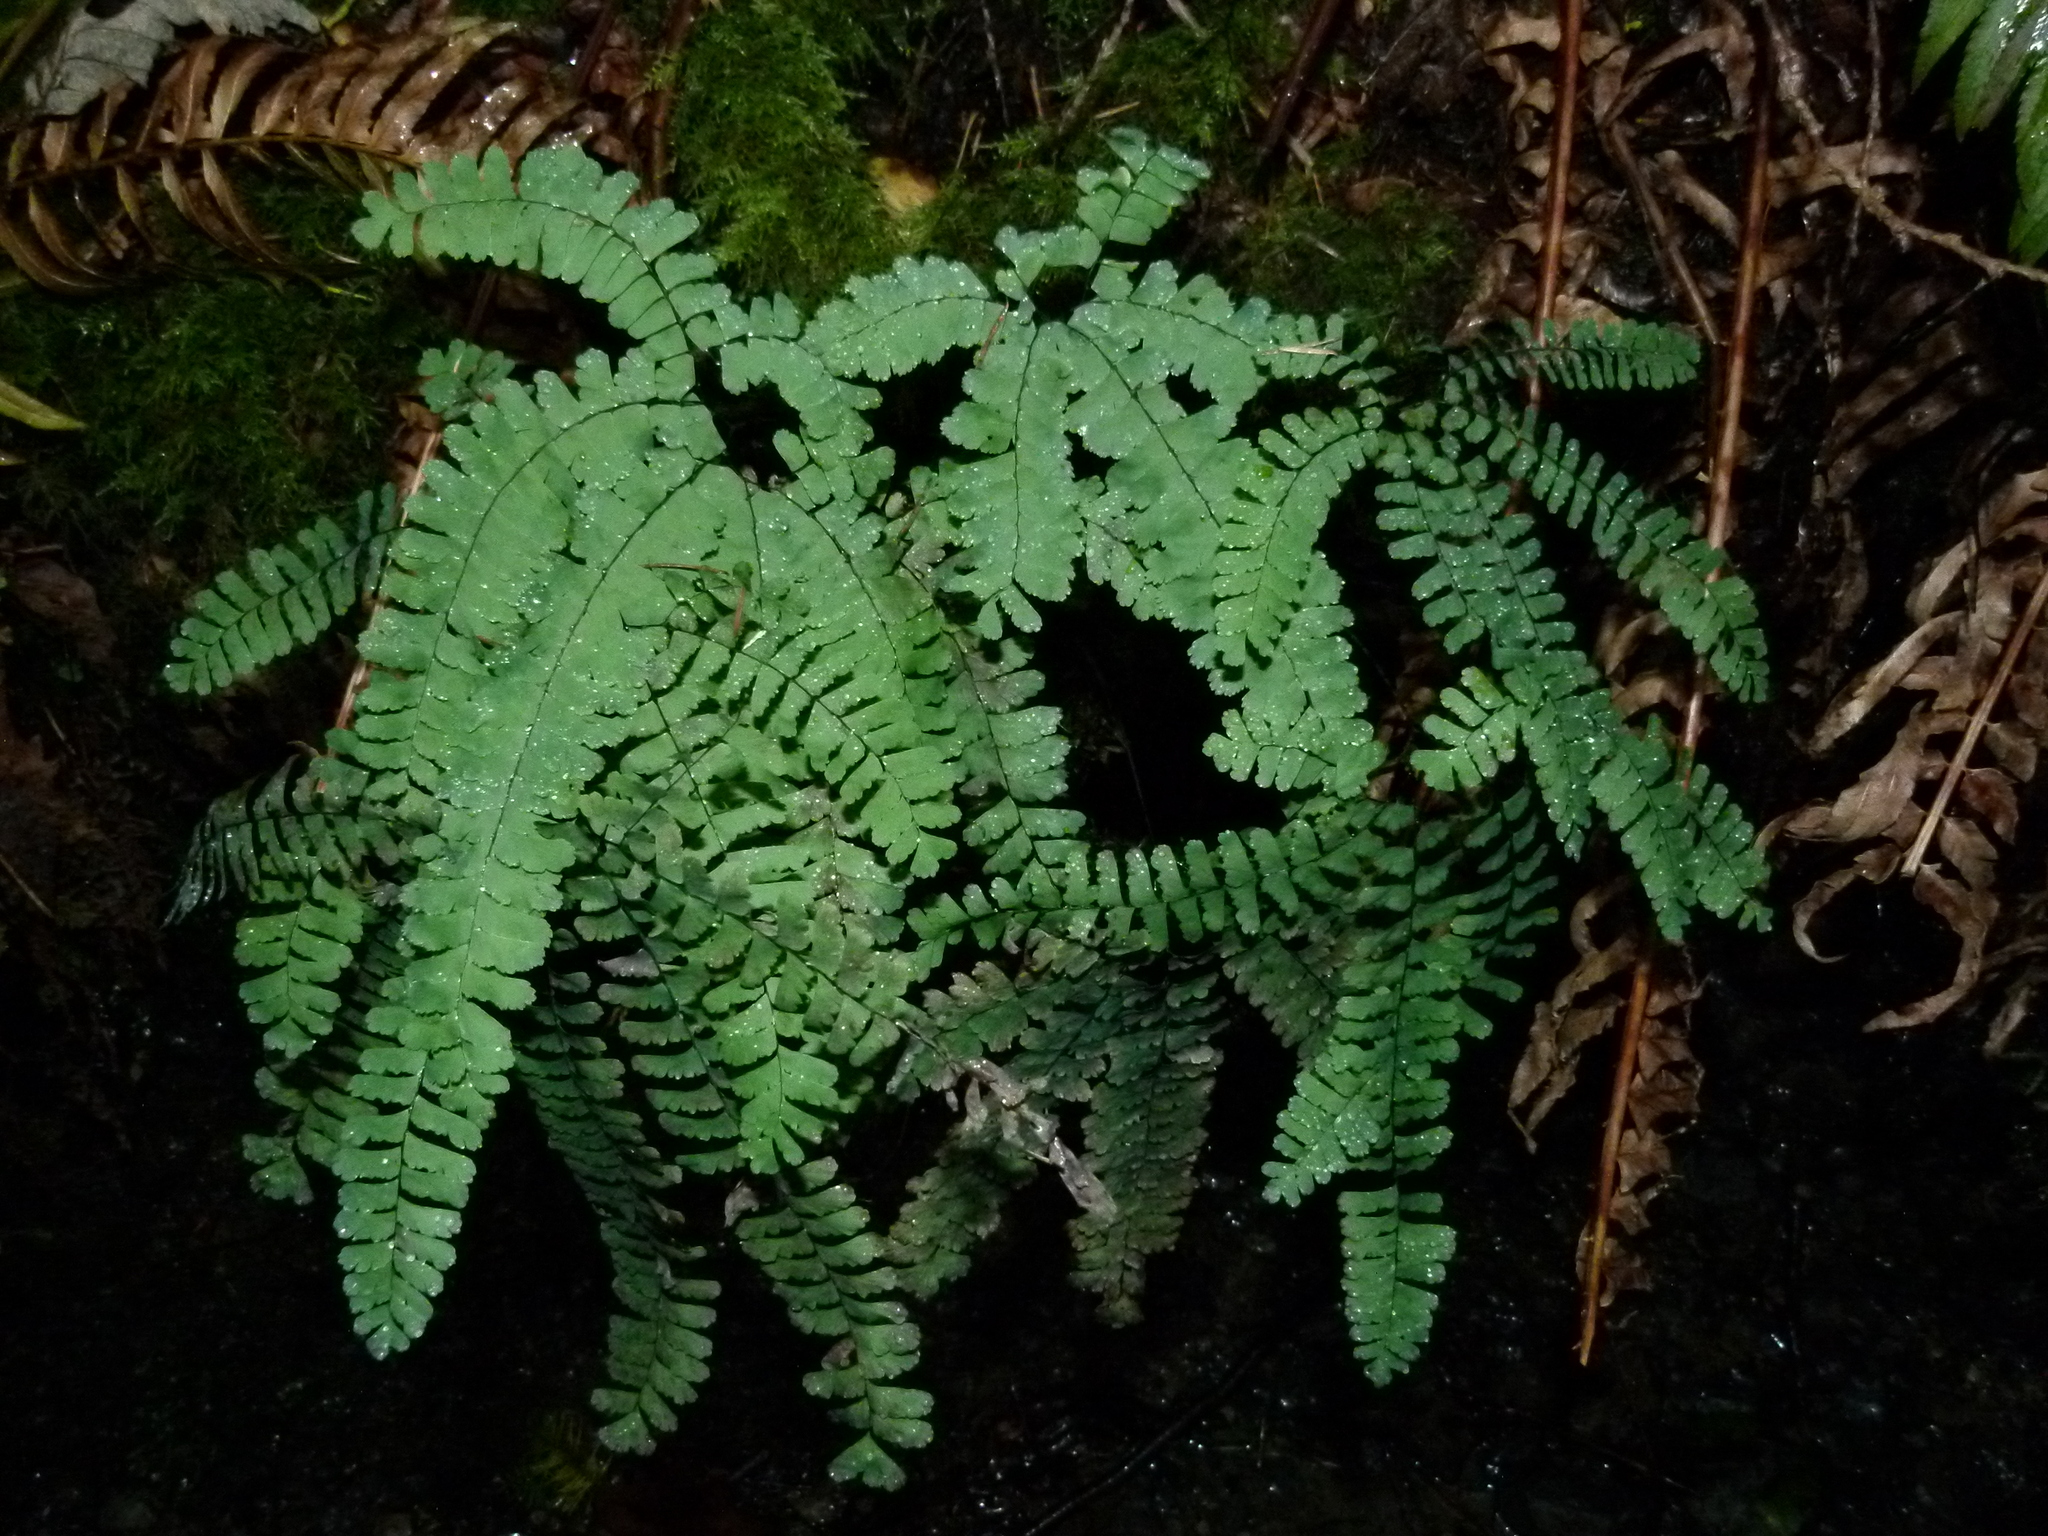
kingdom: Plantae
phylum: Tracheophyta
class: Polypodiopsida
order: Polypodiales
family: Pteridaceae
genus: Adiantum
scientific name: Adiantum aleuticum
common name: Aleutian maidenhair fern
